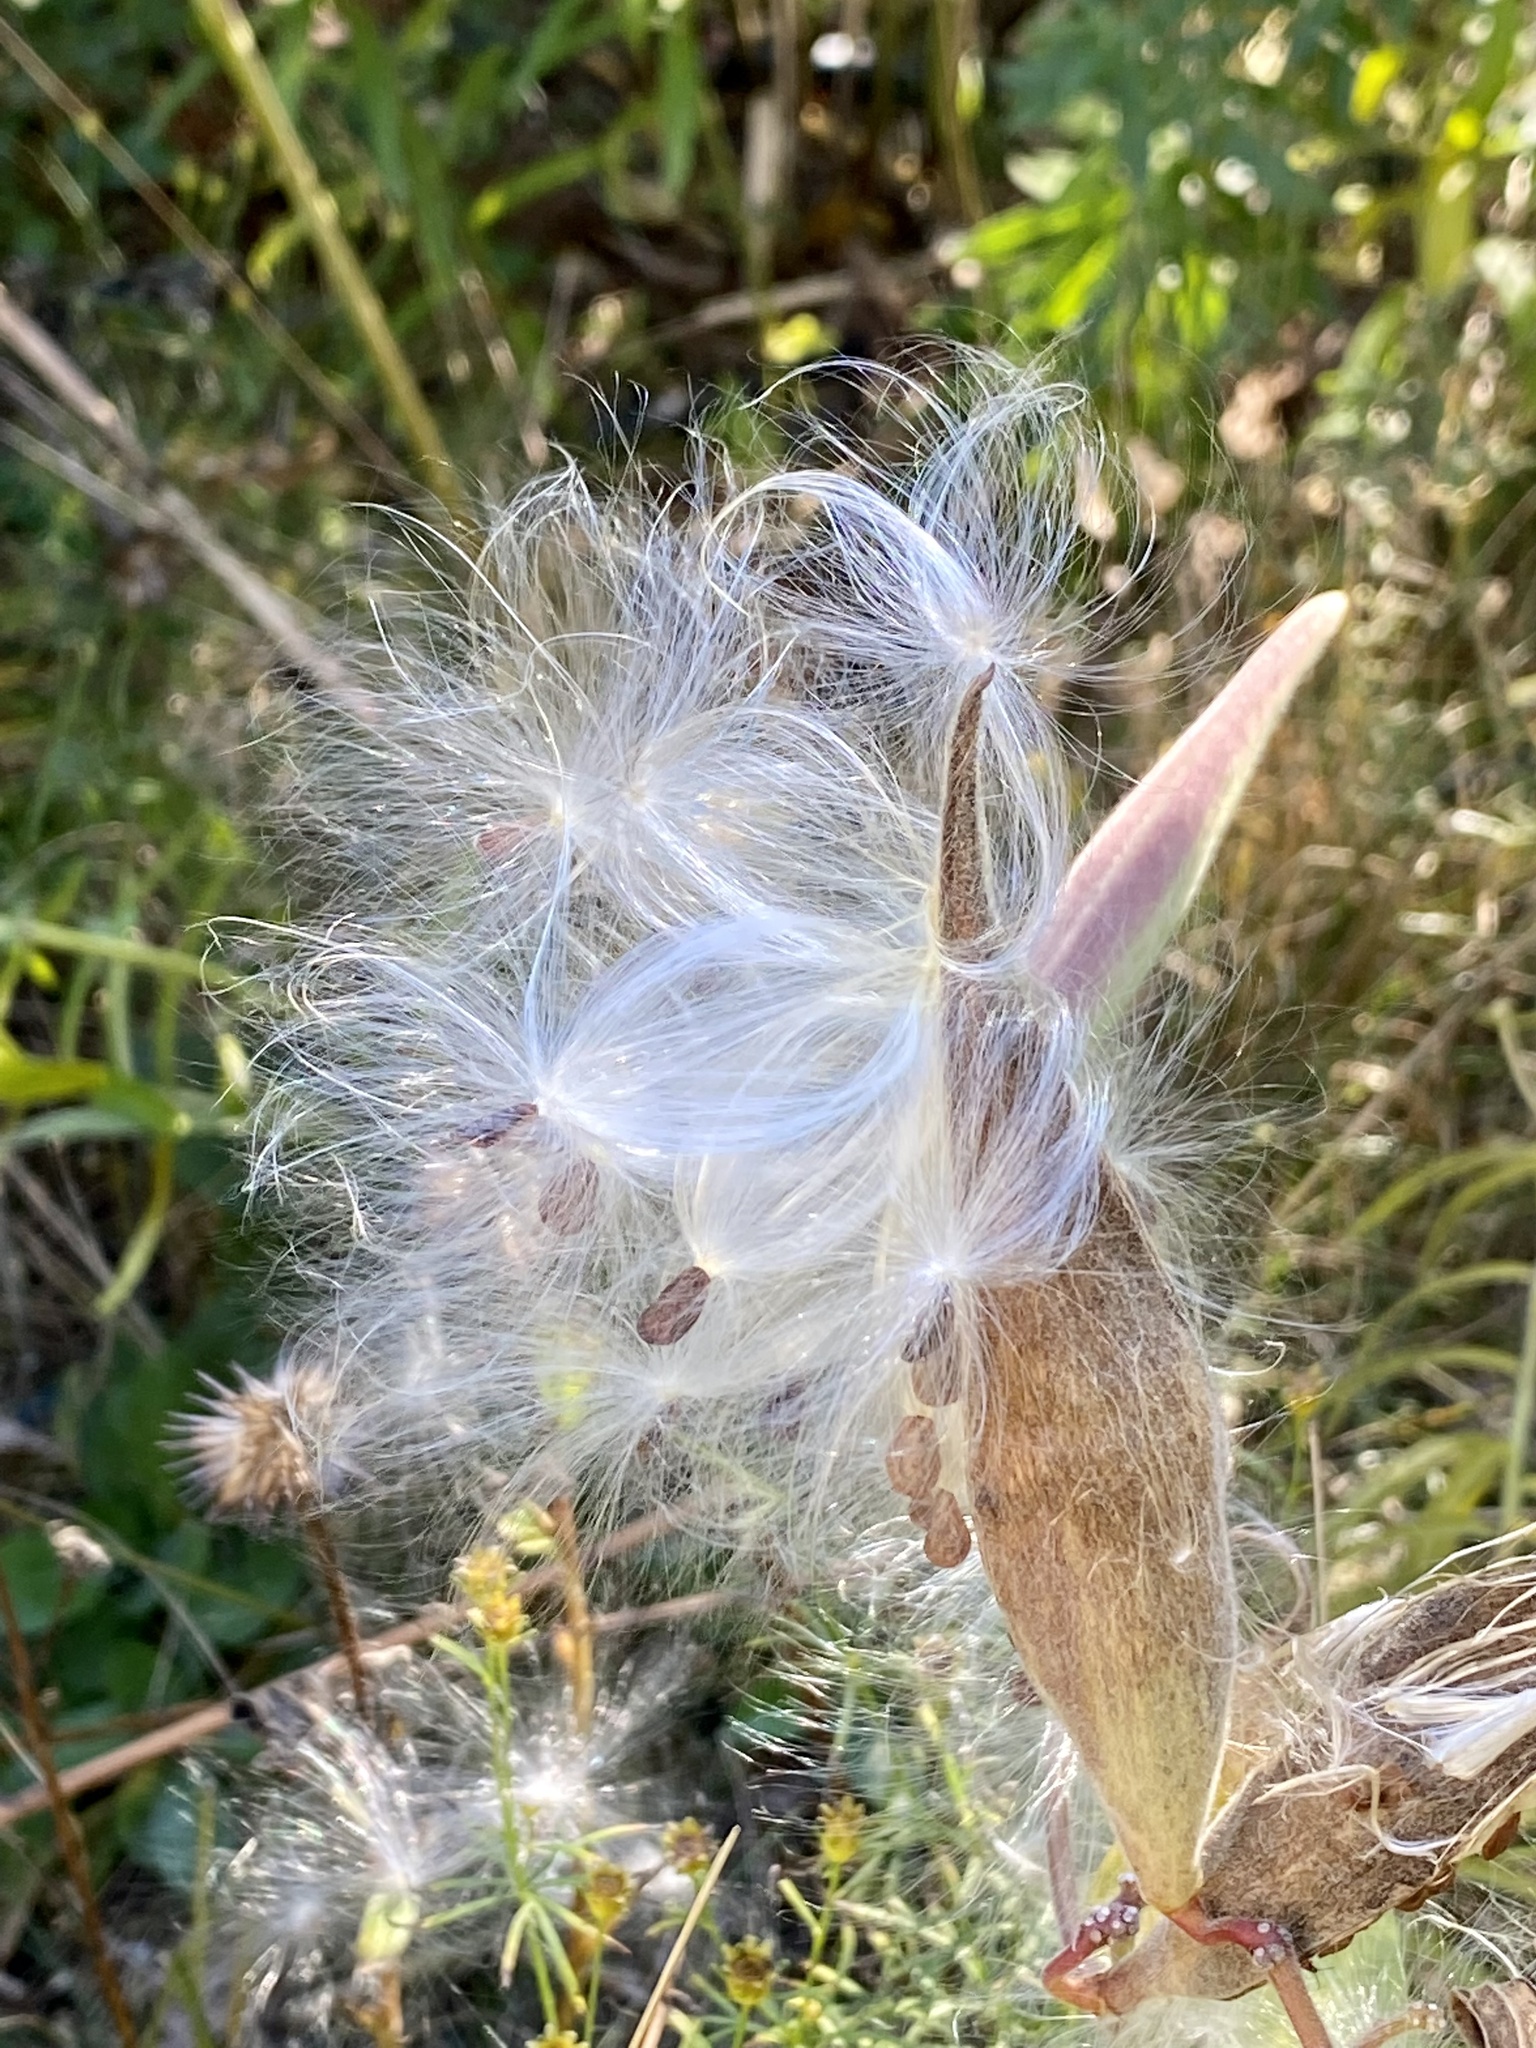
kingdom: Plantae
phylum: Tracheophyta
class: Magnoliopsida
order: Gentianales
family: Apocynaceae
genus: Asclepias
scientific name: Asclepias tuberosa
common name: Butterfly milkweed
